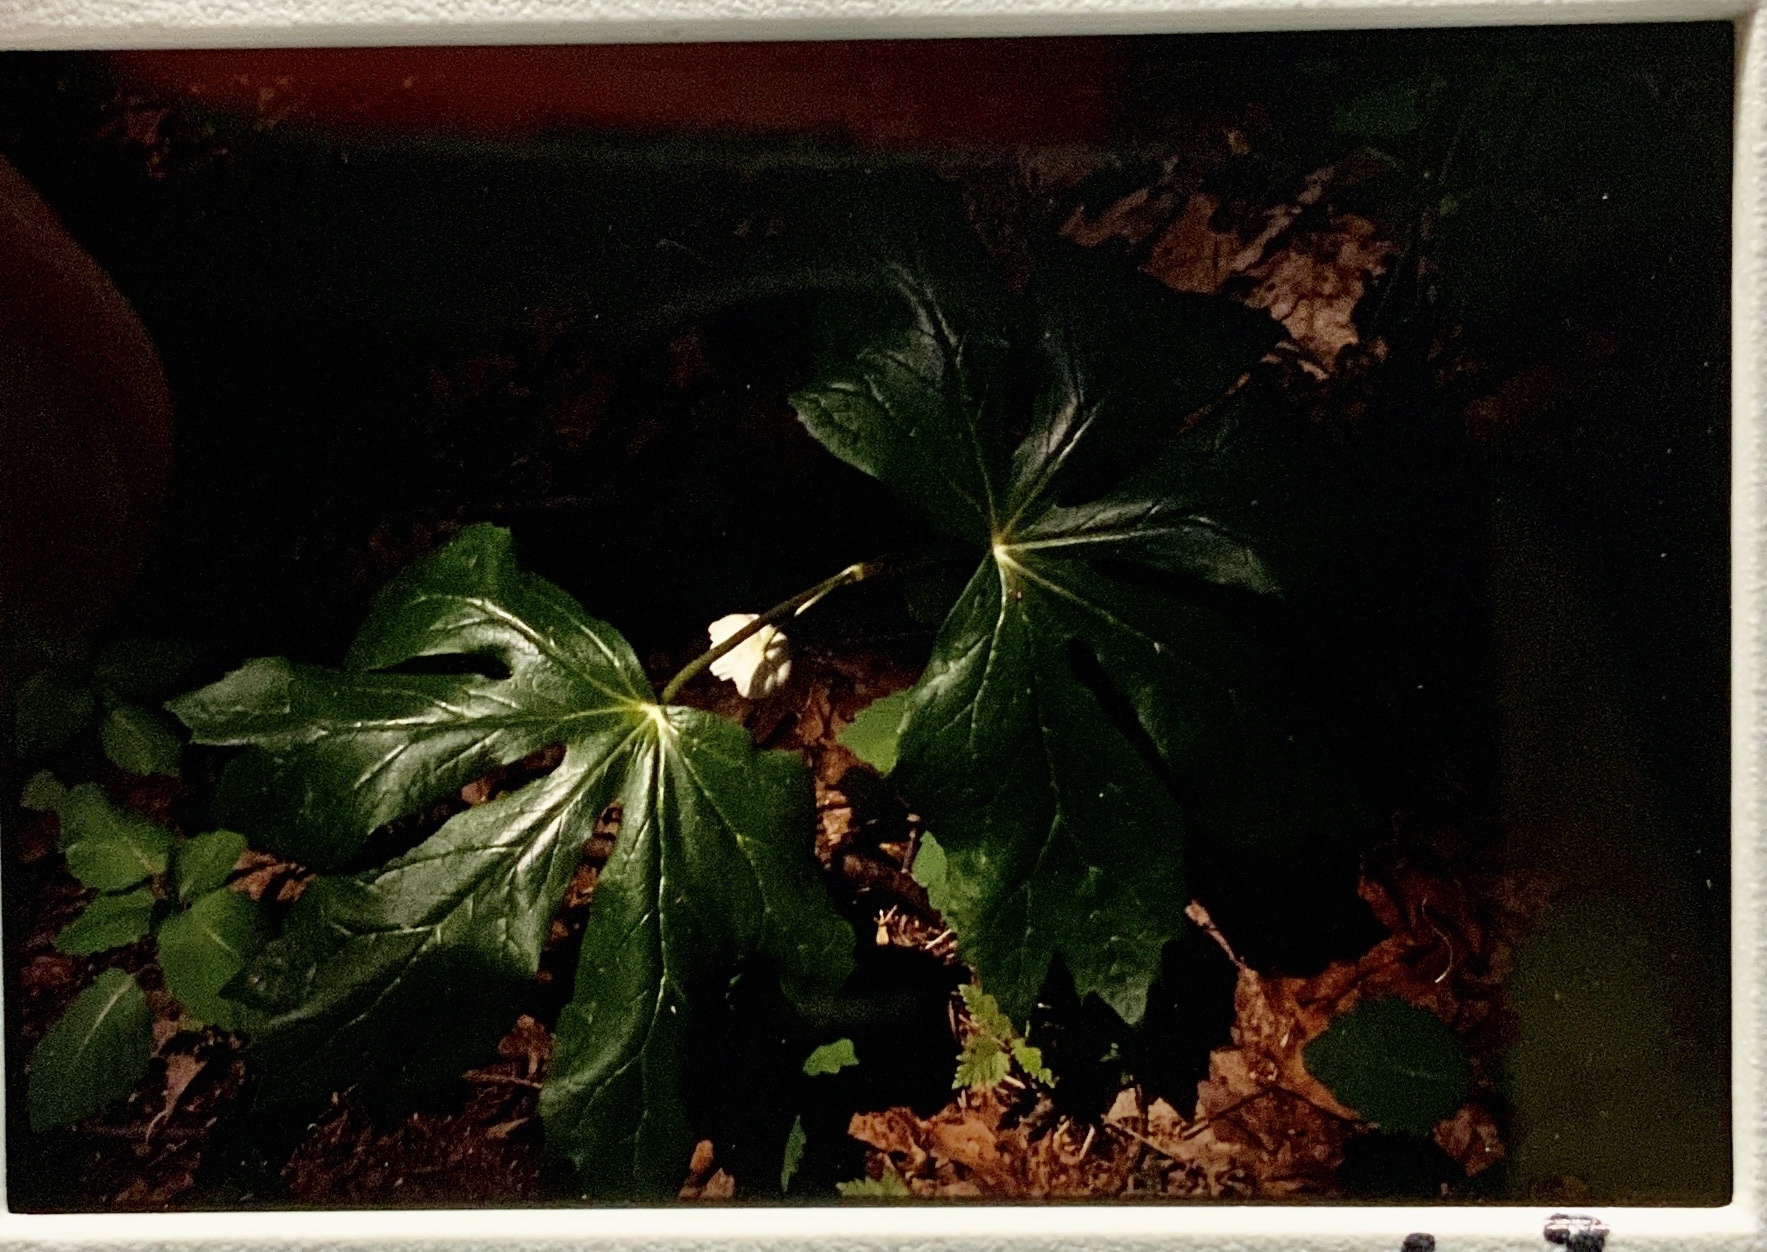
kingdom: Plantae
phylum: Tracheophyta
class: Magnoliopsida
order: Ranunculales
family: Berberidaceae
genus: Podophyllum
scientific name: Podophyllum peltatum
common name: Wild mandrake
